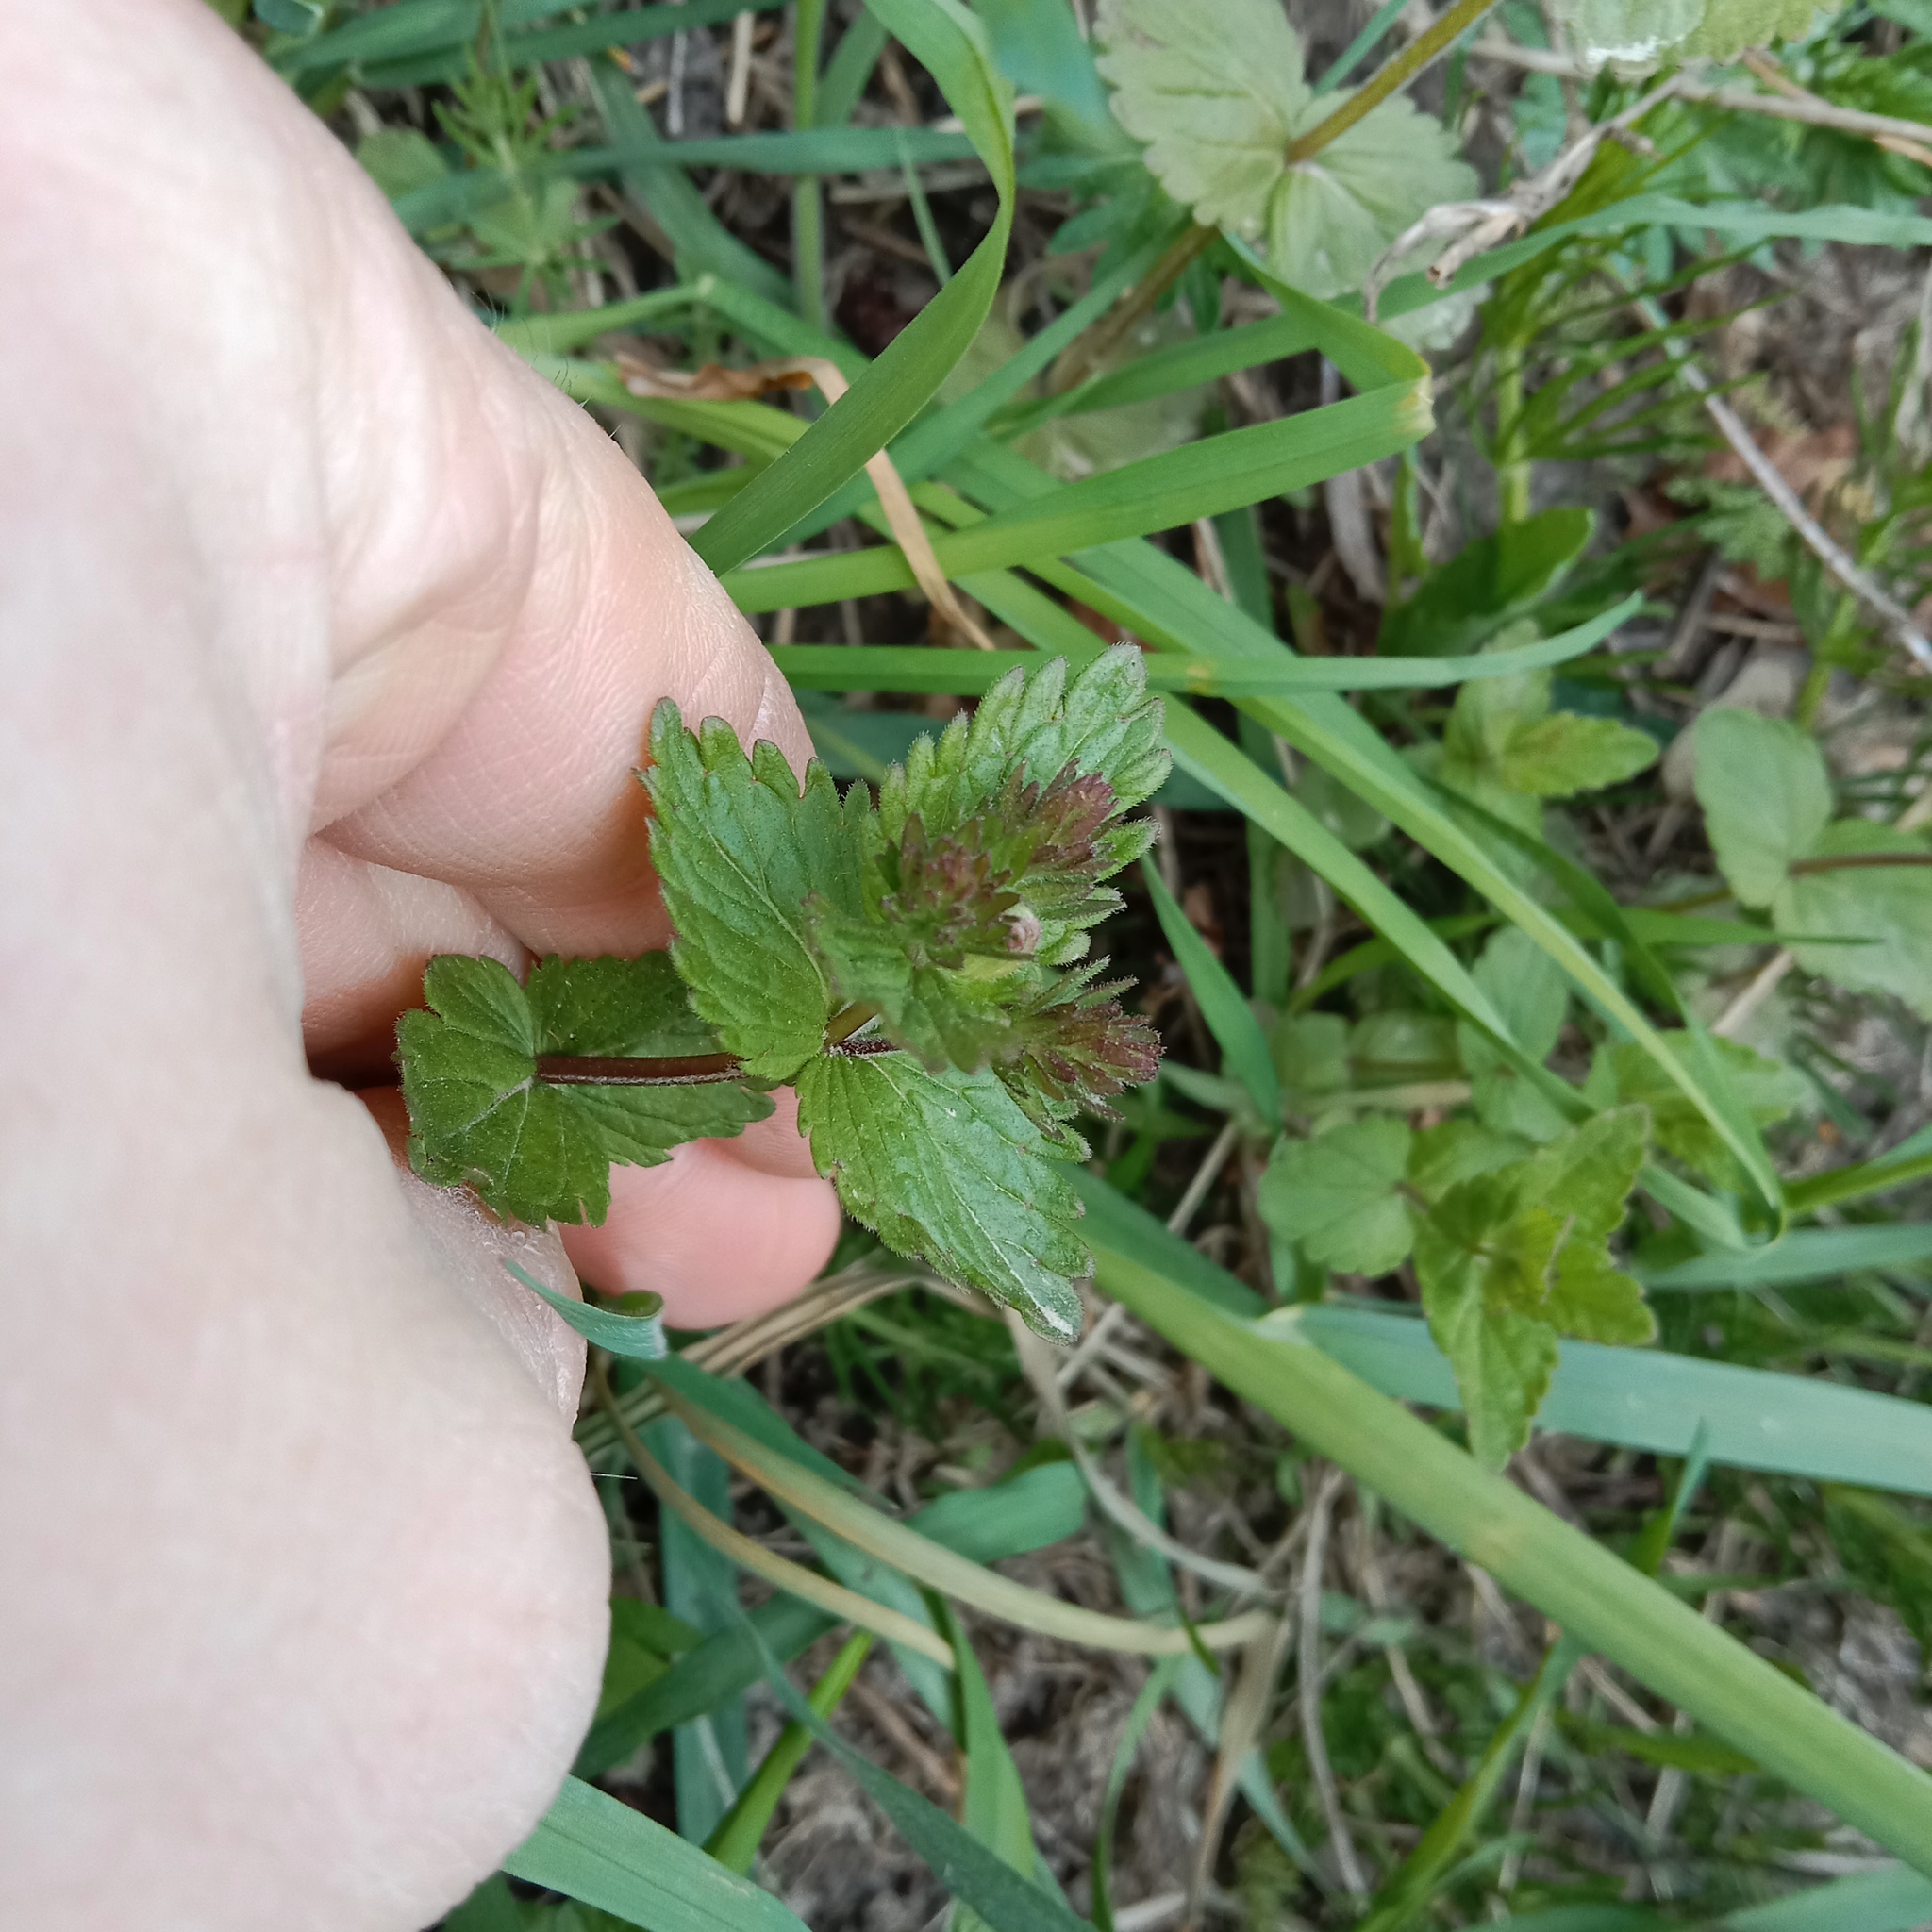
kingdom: Plantae
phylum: Tracheophyta
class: Magnoliopsida
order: Lamiales
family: Plantaginaceae
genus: Veronica
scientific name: Veronica chamaedrys
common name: Germander speedwell
